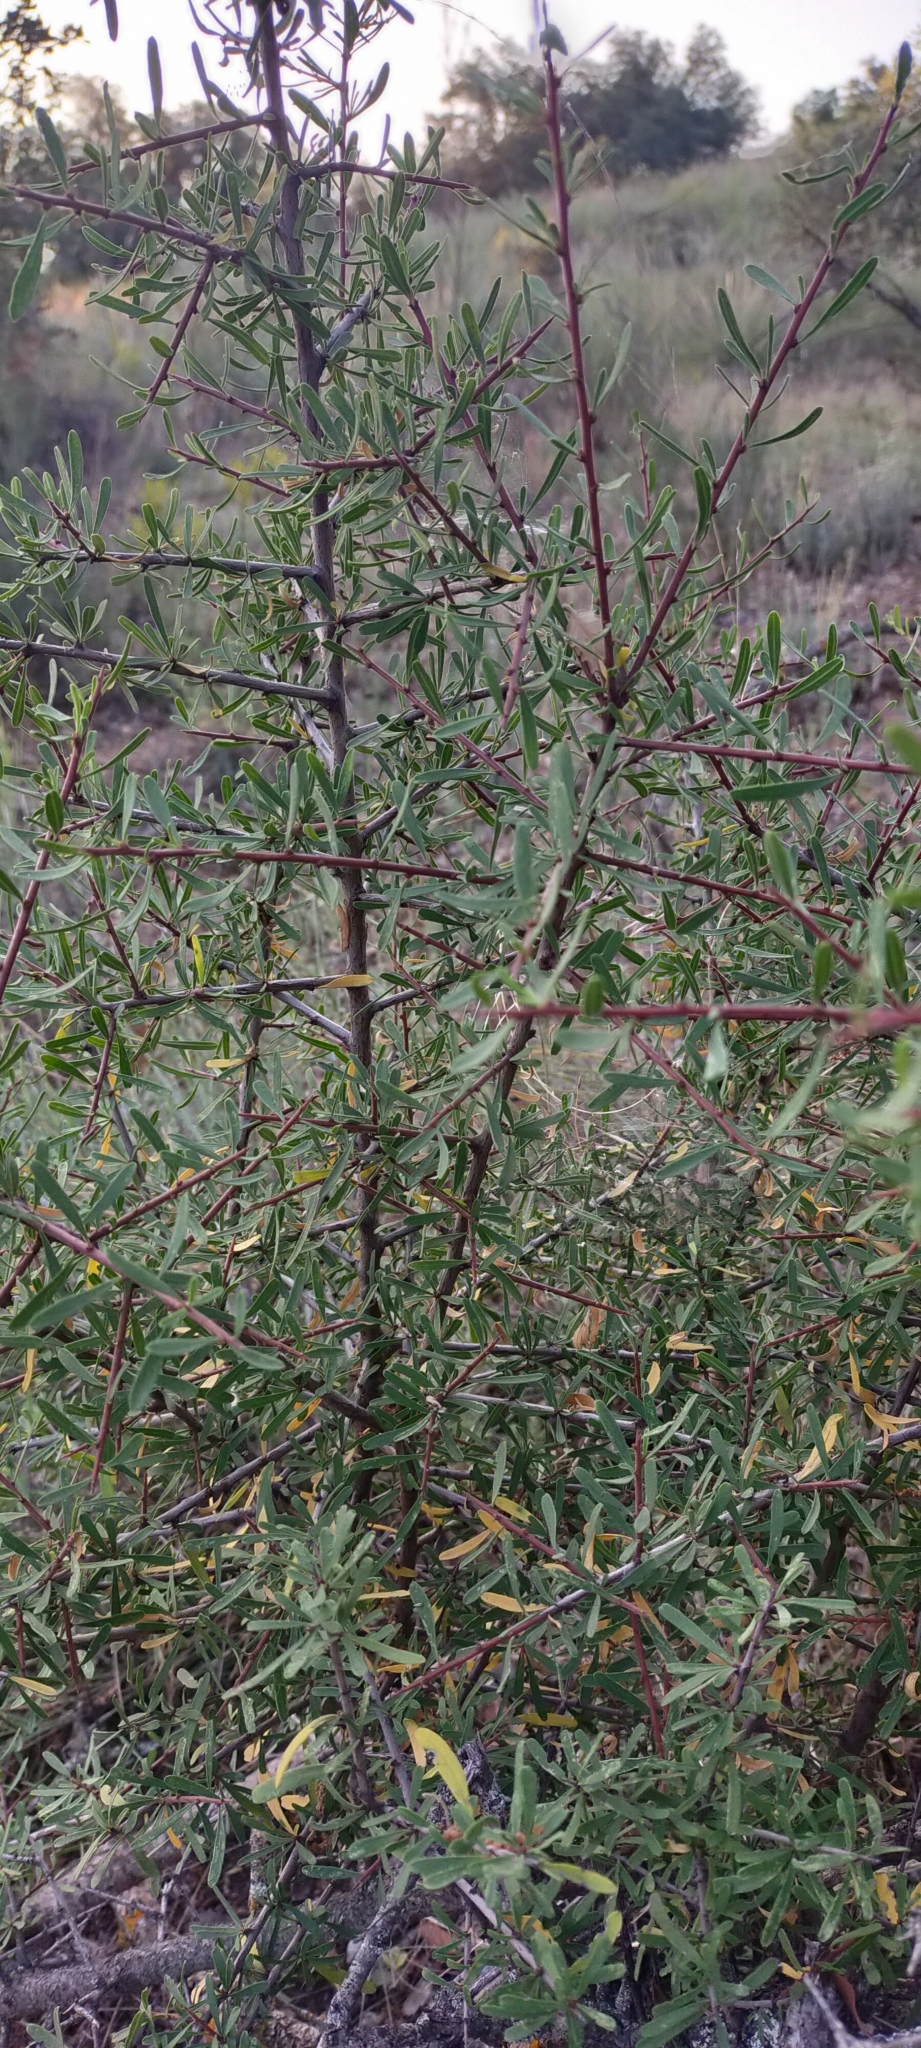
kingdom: Plantae
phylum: Tracheophyta
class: Magnoliopsida
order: Rosales
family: Rhamnaceae
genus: Rhamnus
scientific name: Rhamnus lycioides
